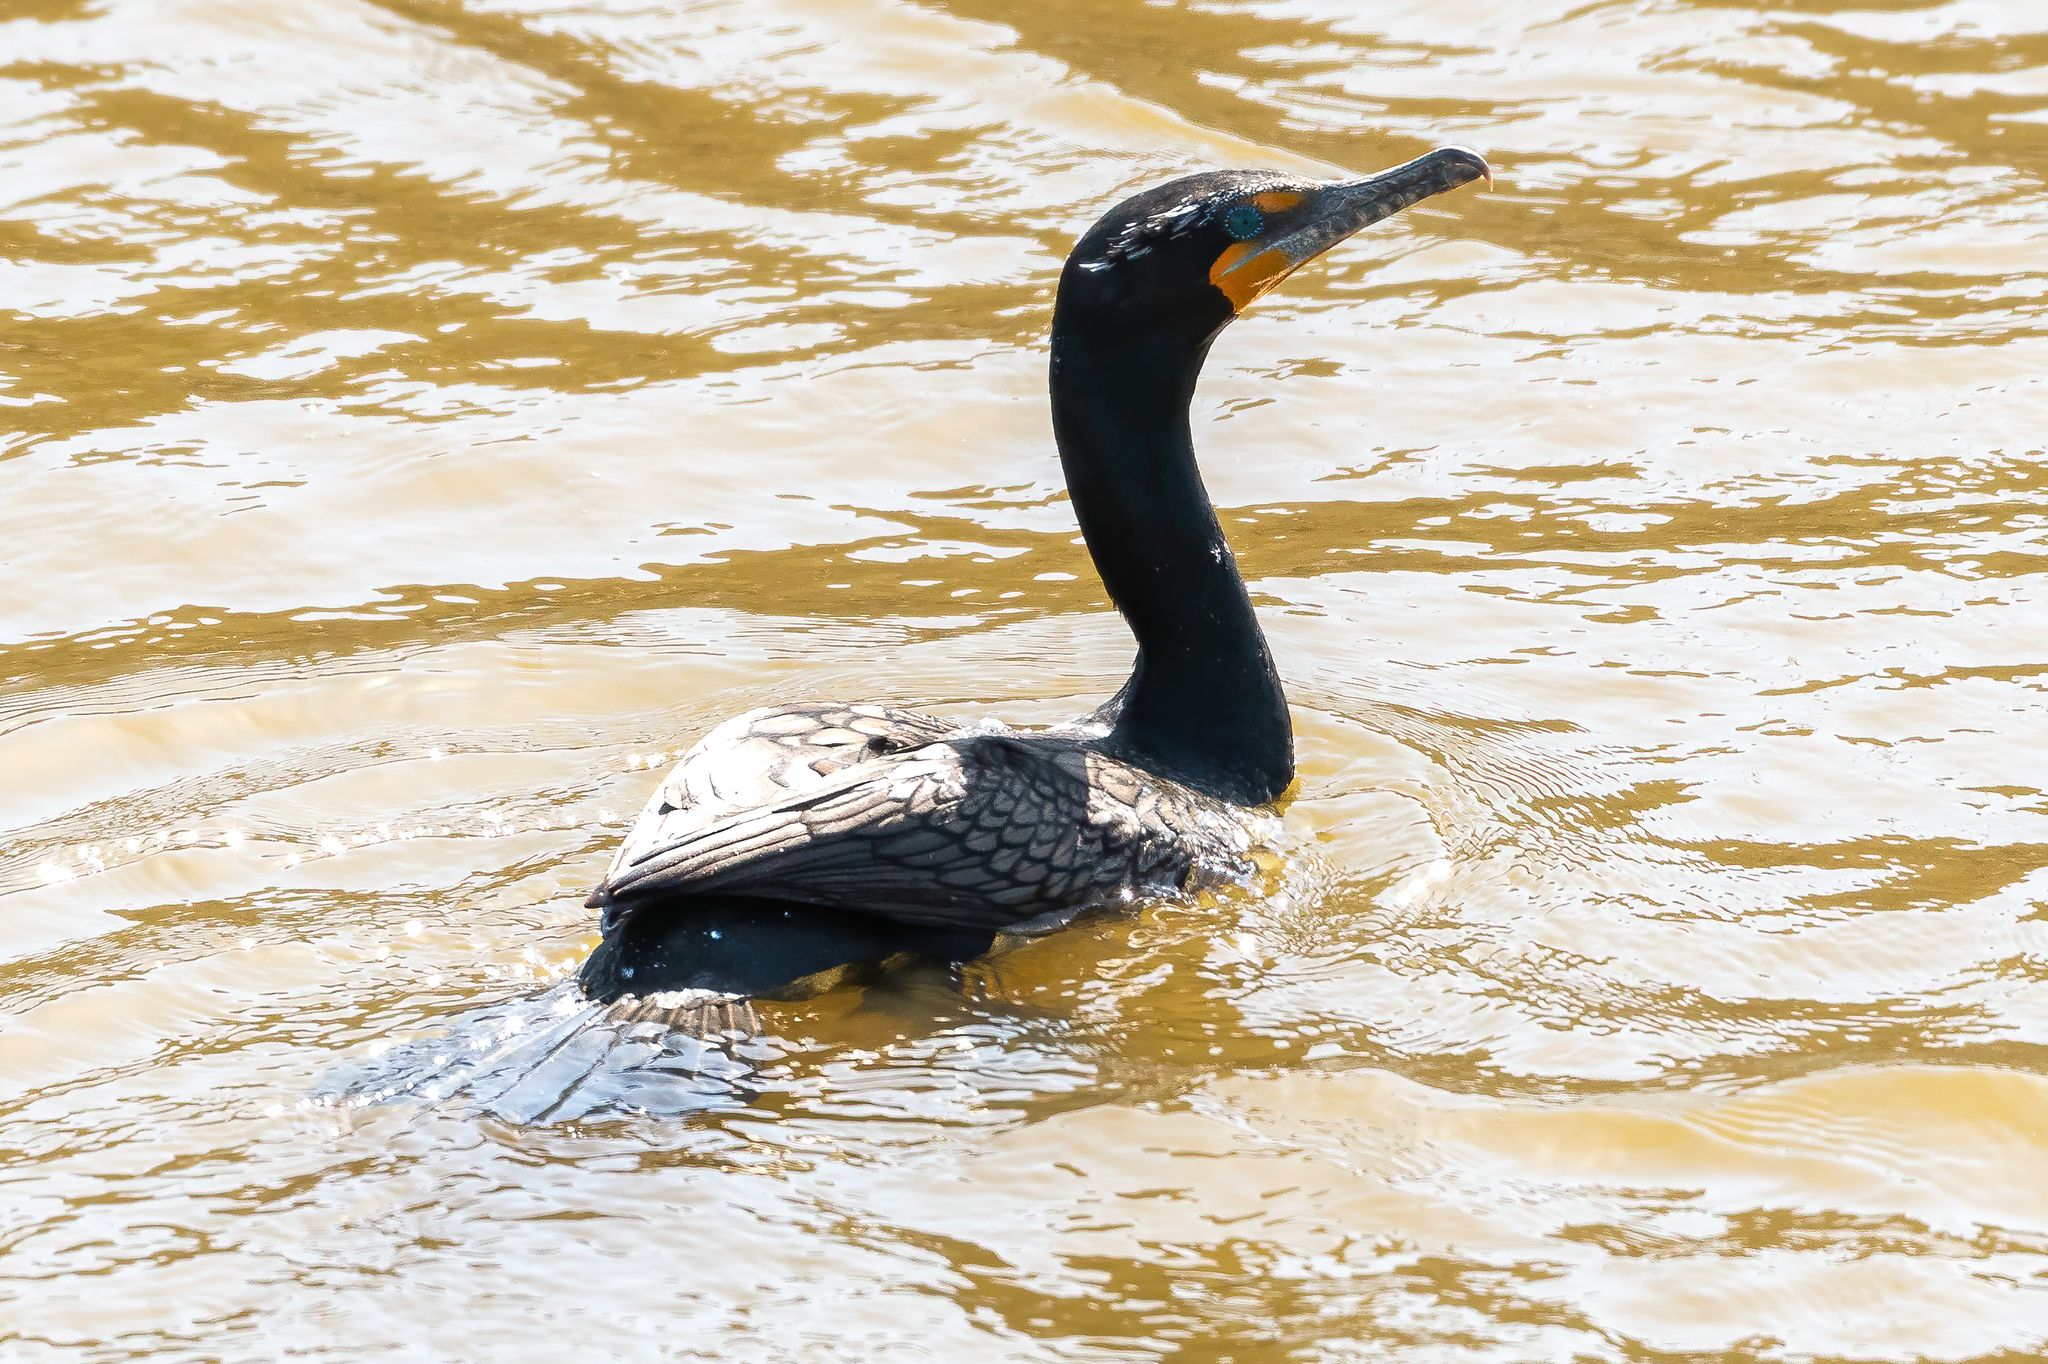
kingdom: Animalia
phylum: Chordata
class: Aves
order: Suliformes
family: Phalacrocoracidae
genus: Phalacrocorax
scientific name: Phalacrocorax auritus
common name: Double-crested cormorant
